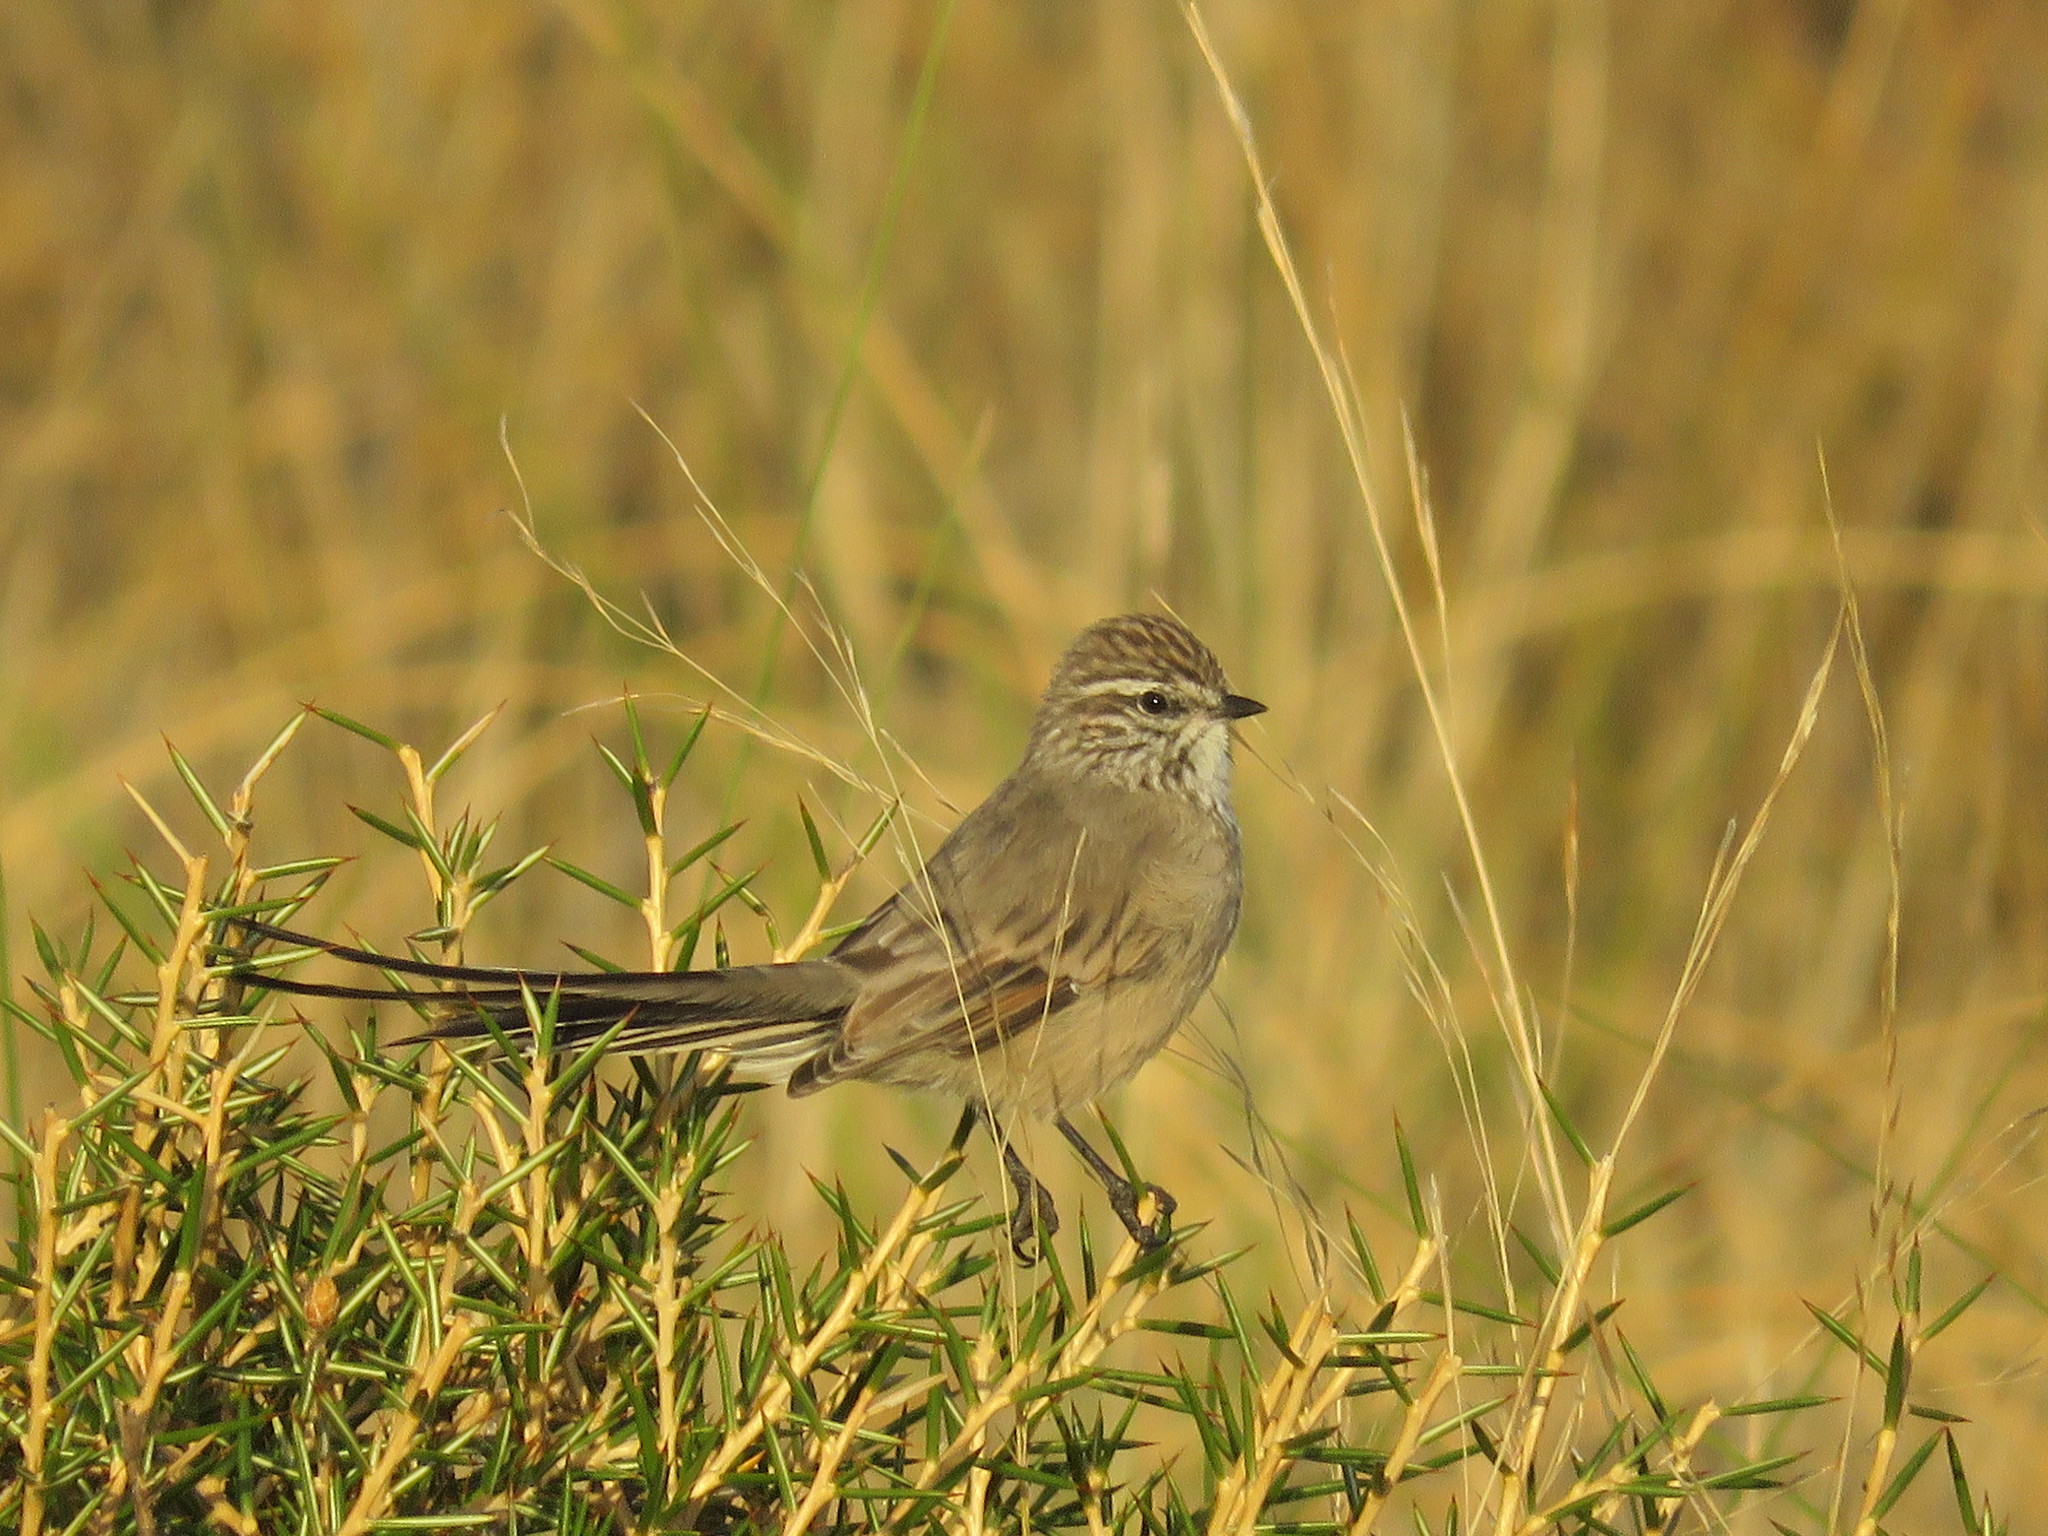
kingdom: Animalia
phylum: Chordata
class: Aves
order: Passeriformes
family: Furnariidae
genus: Leptasthenura
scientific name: Leptasthenura aegithaloides
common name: Plain-mantled tit-spinetail
